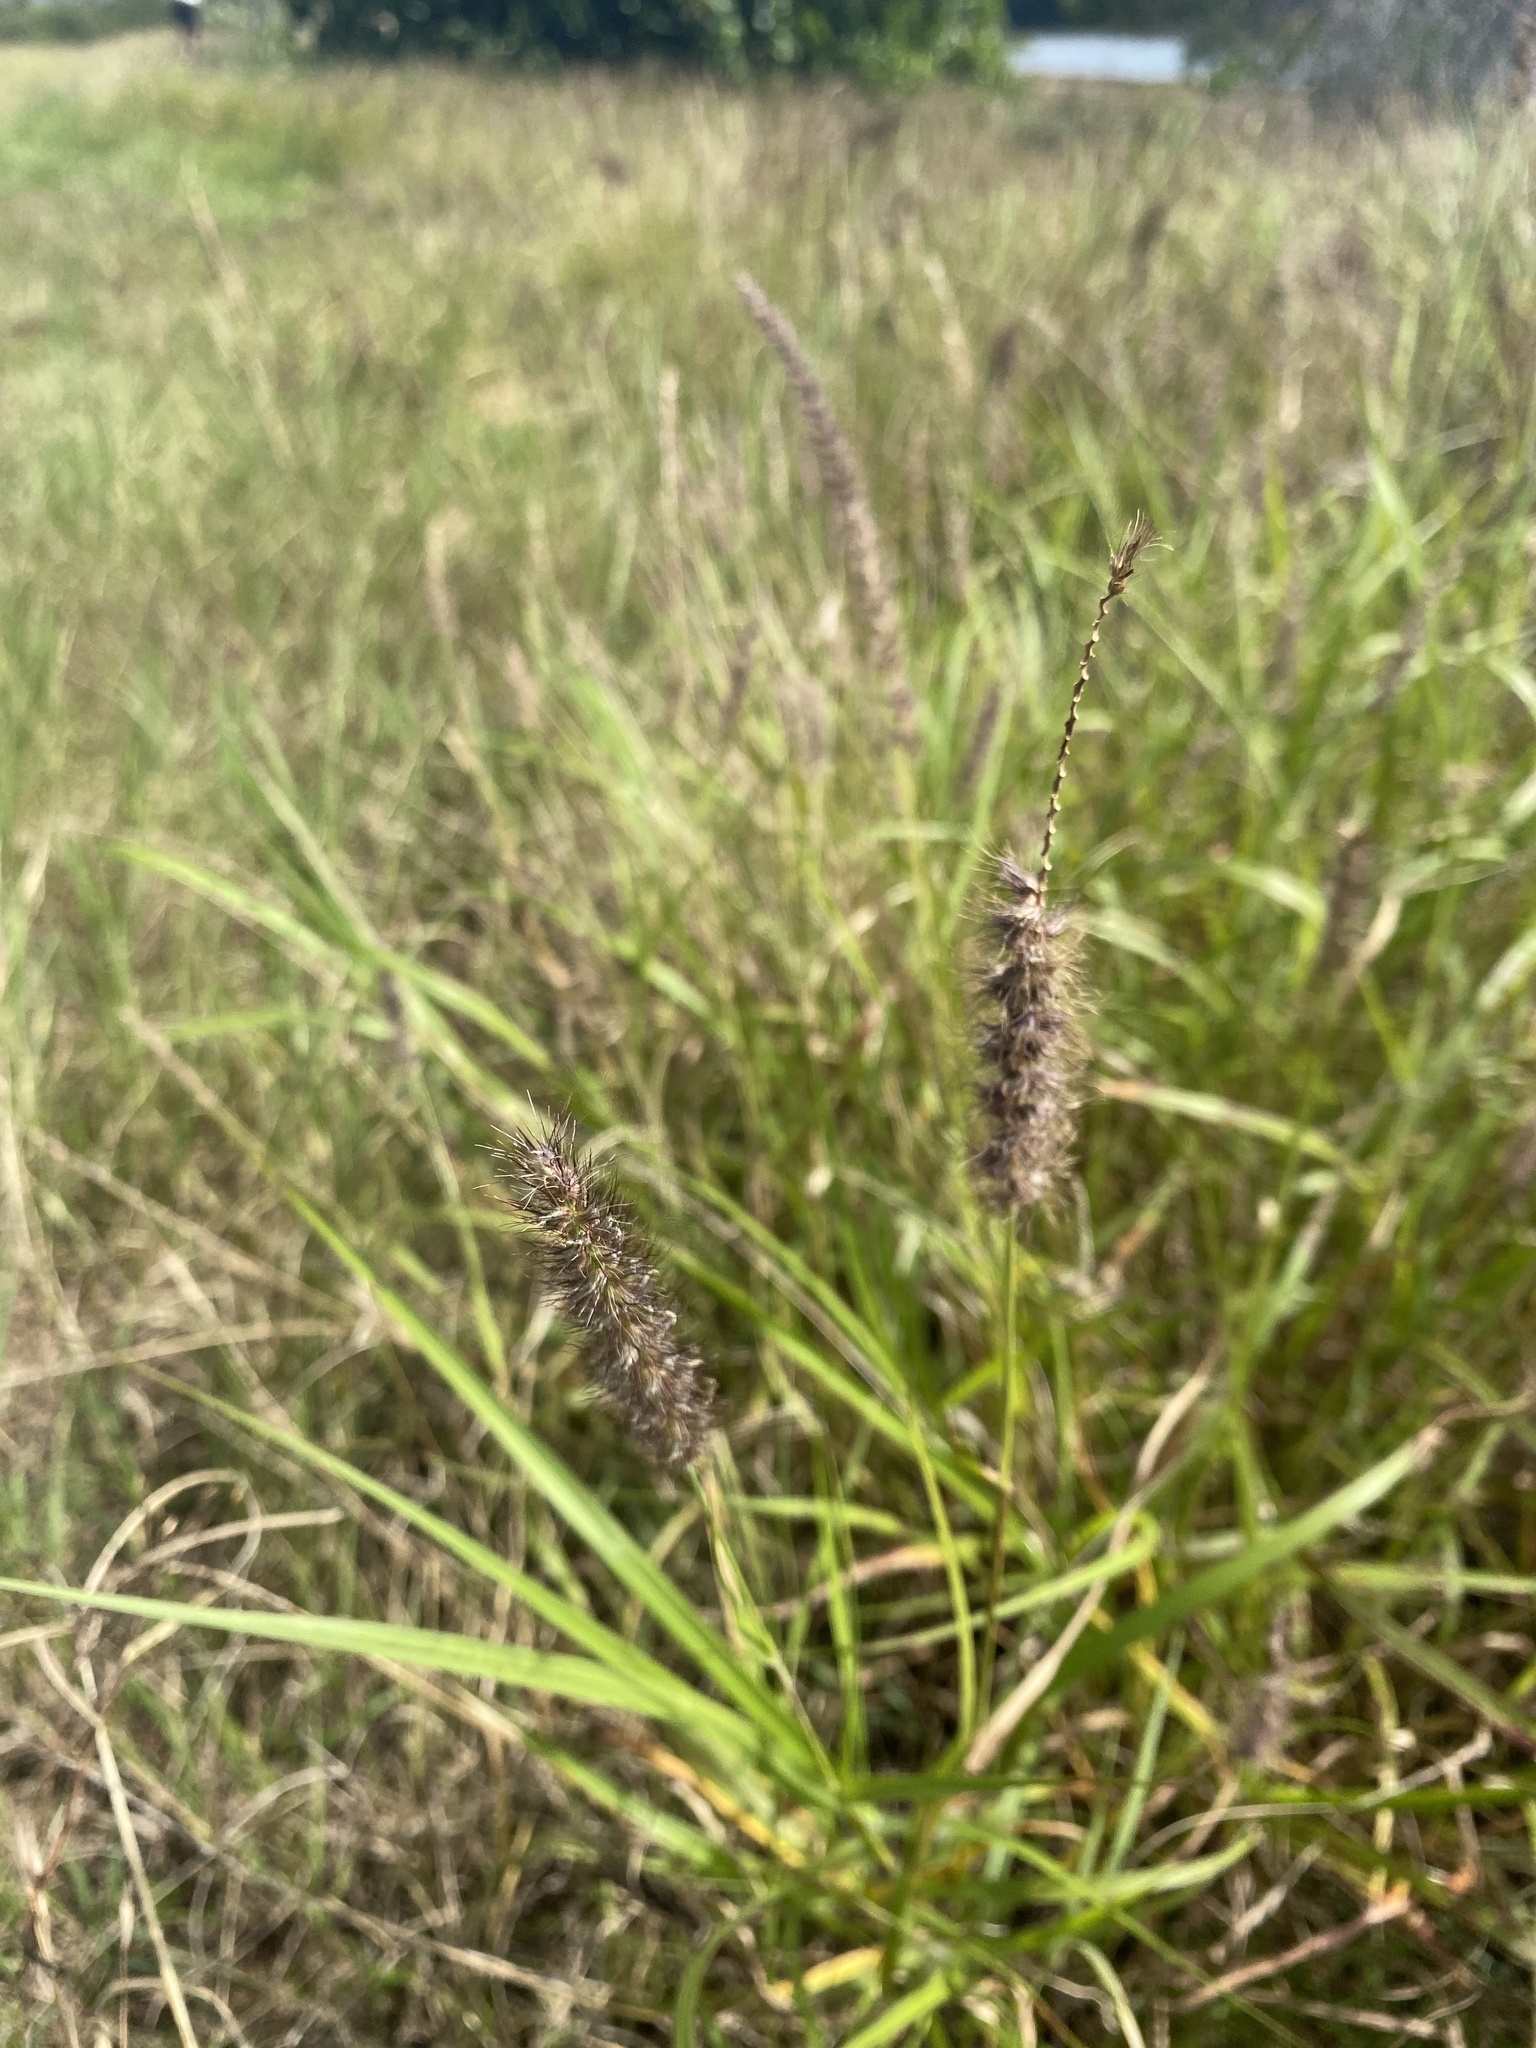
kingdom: Plantae
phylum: Tracheophyta
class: Liliopsida
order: Poales
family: Poaceae
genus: Cenchrus
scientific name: Cenchrus ciliaris
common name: Buffelgrass
